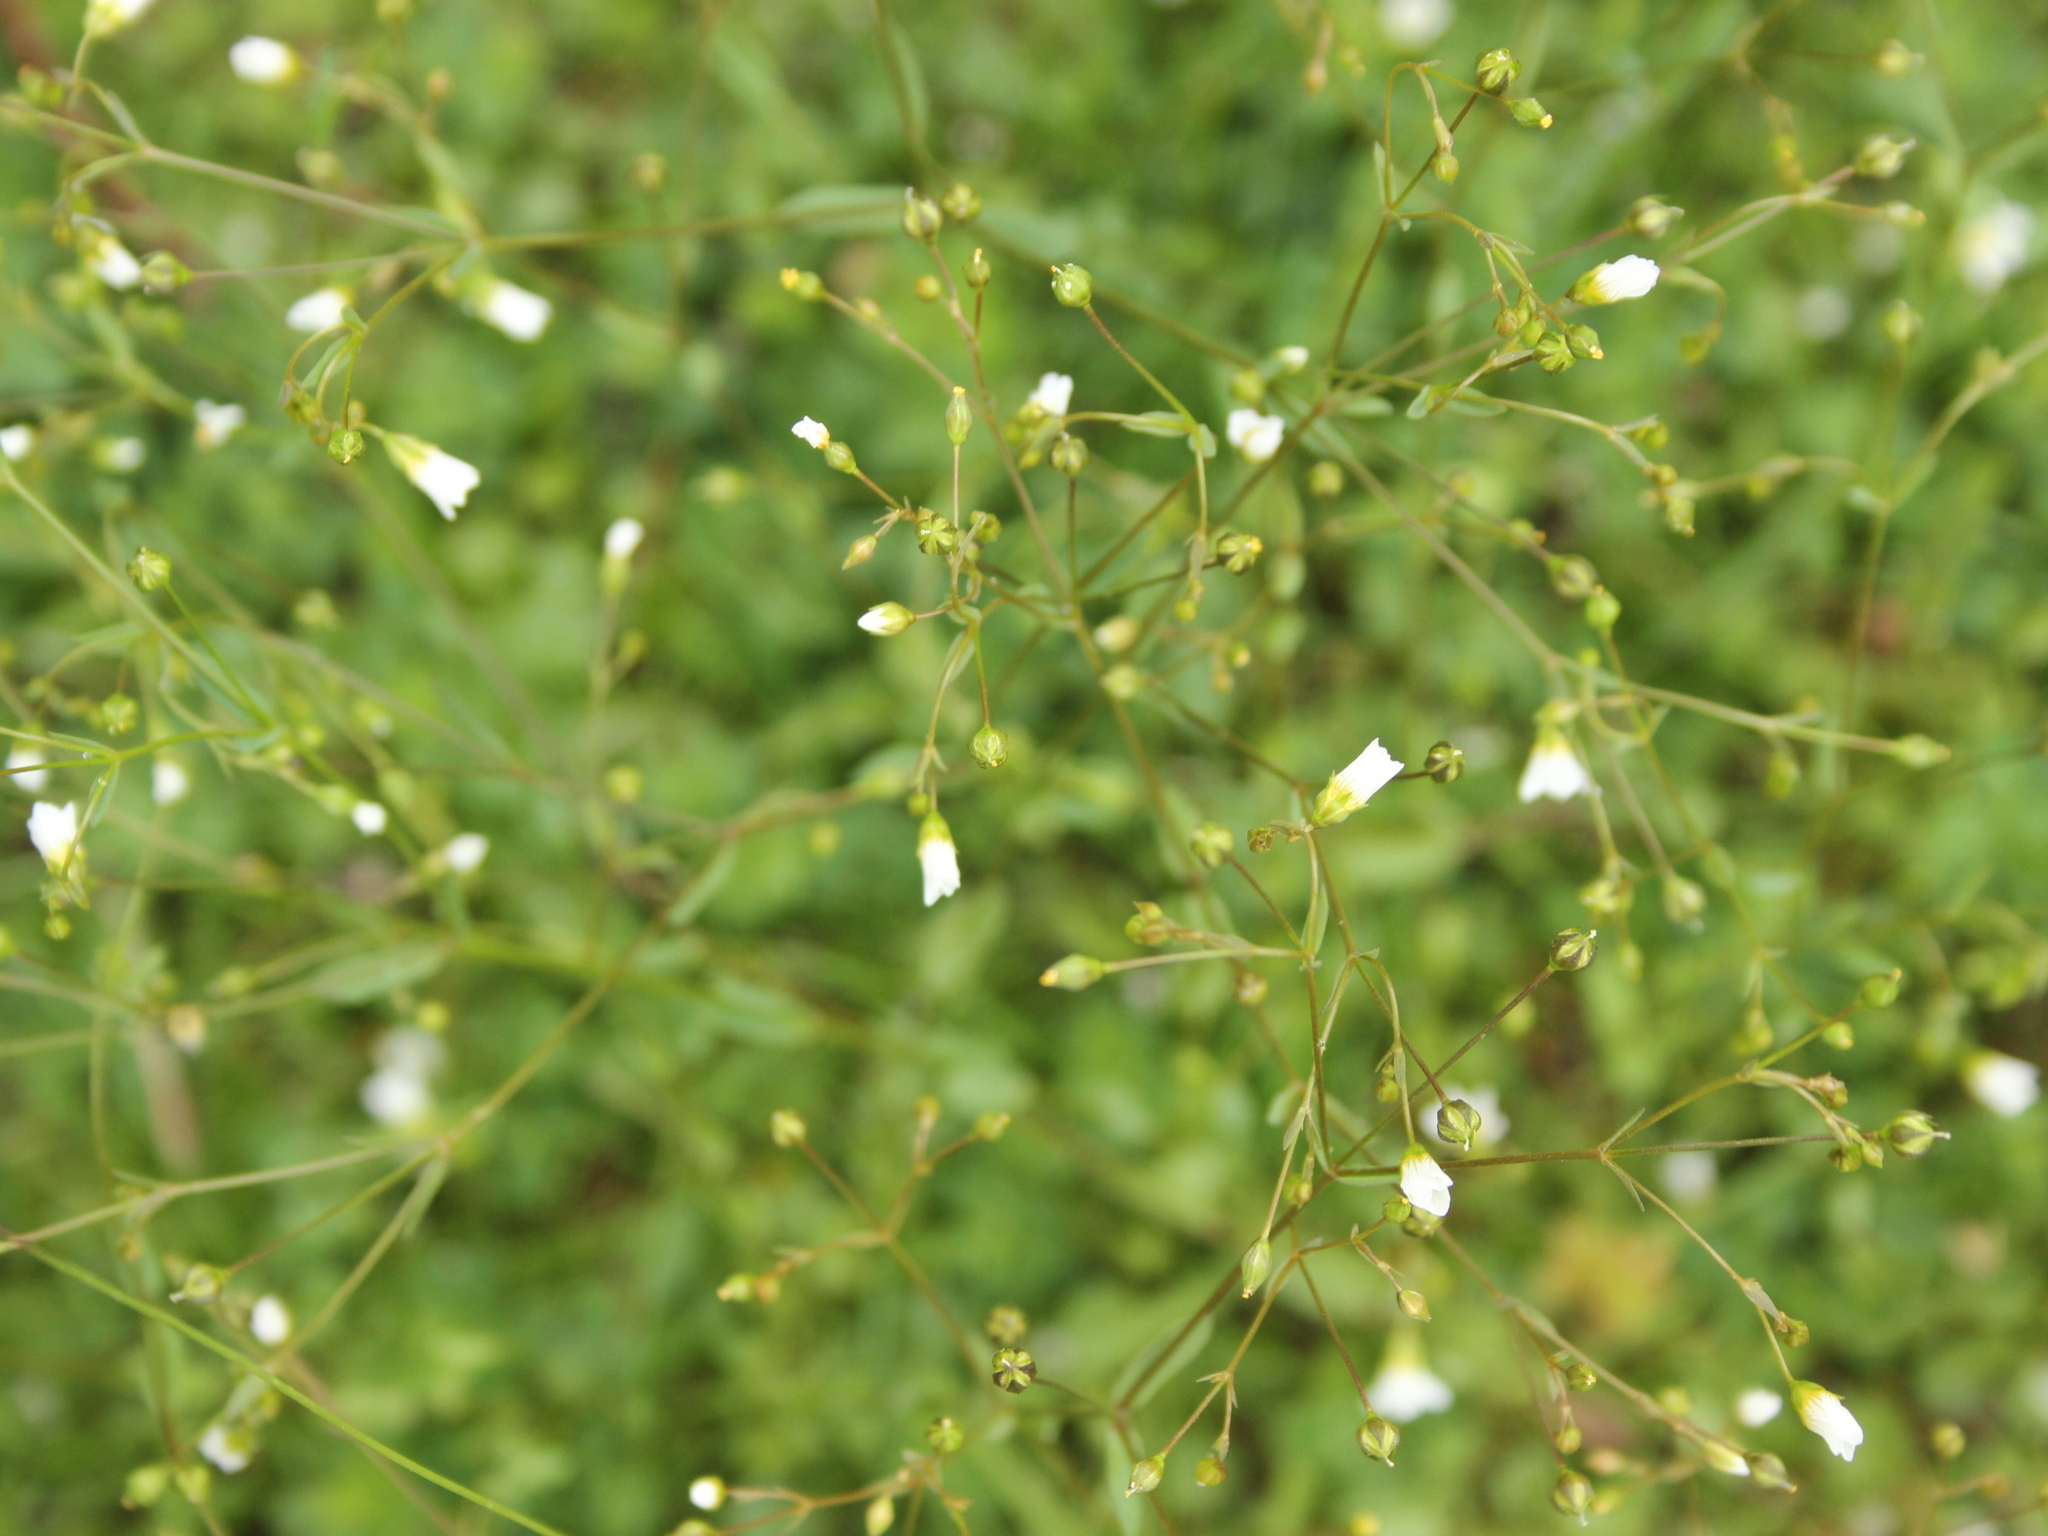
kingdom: Plantae
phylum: Tracheophyta
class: Magnoliopsida
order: Malpighiales
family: Linaceae
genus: Linum
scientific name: Linum catharticum
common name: Fairy flax
